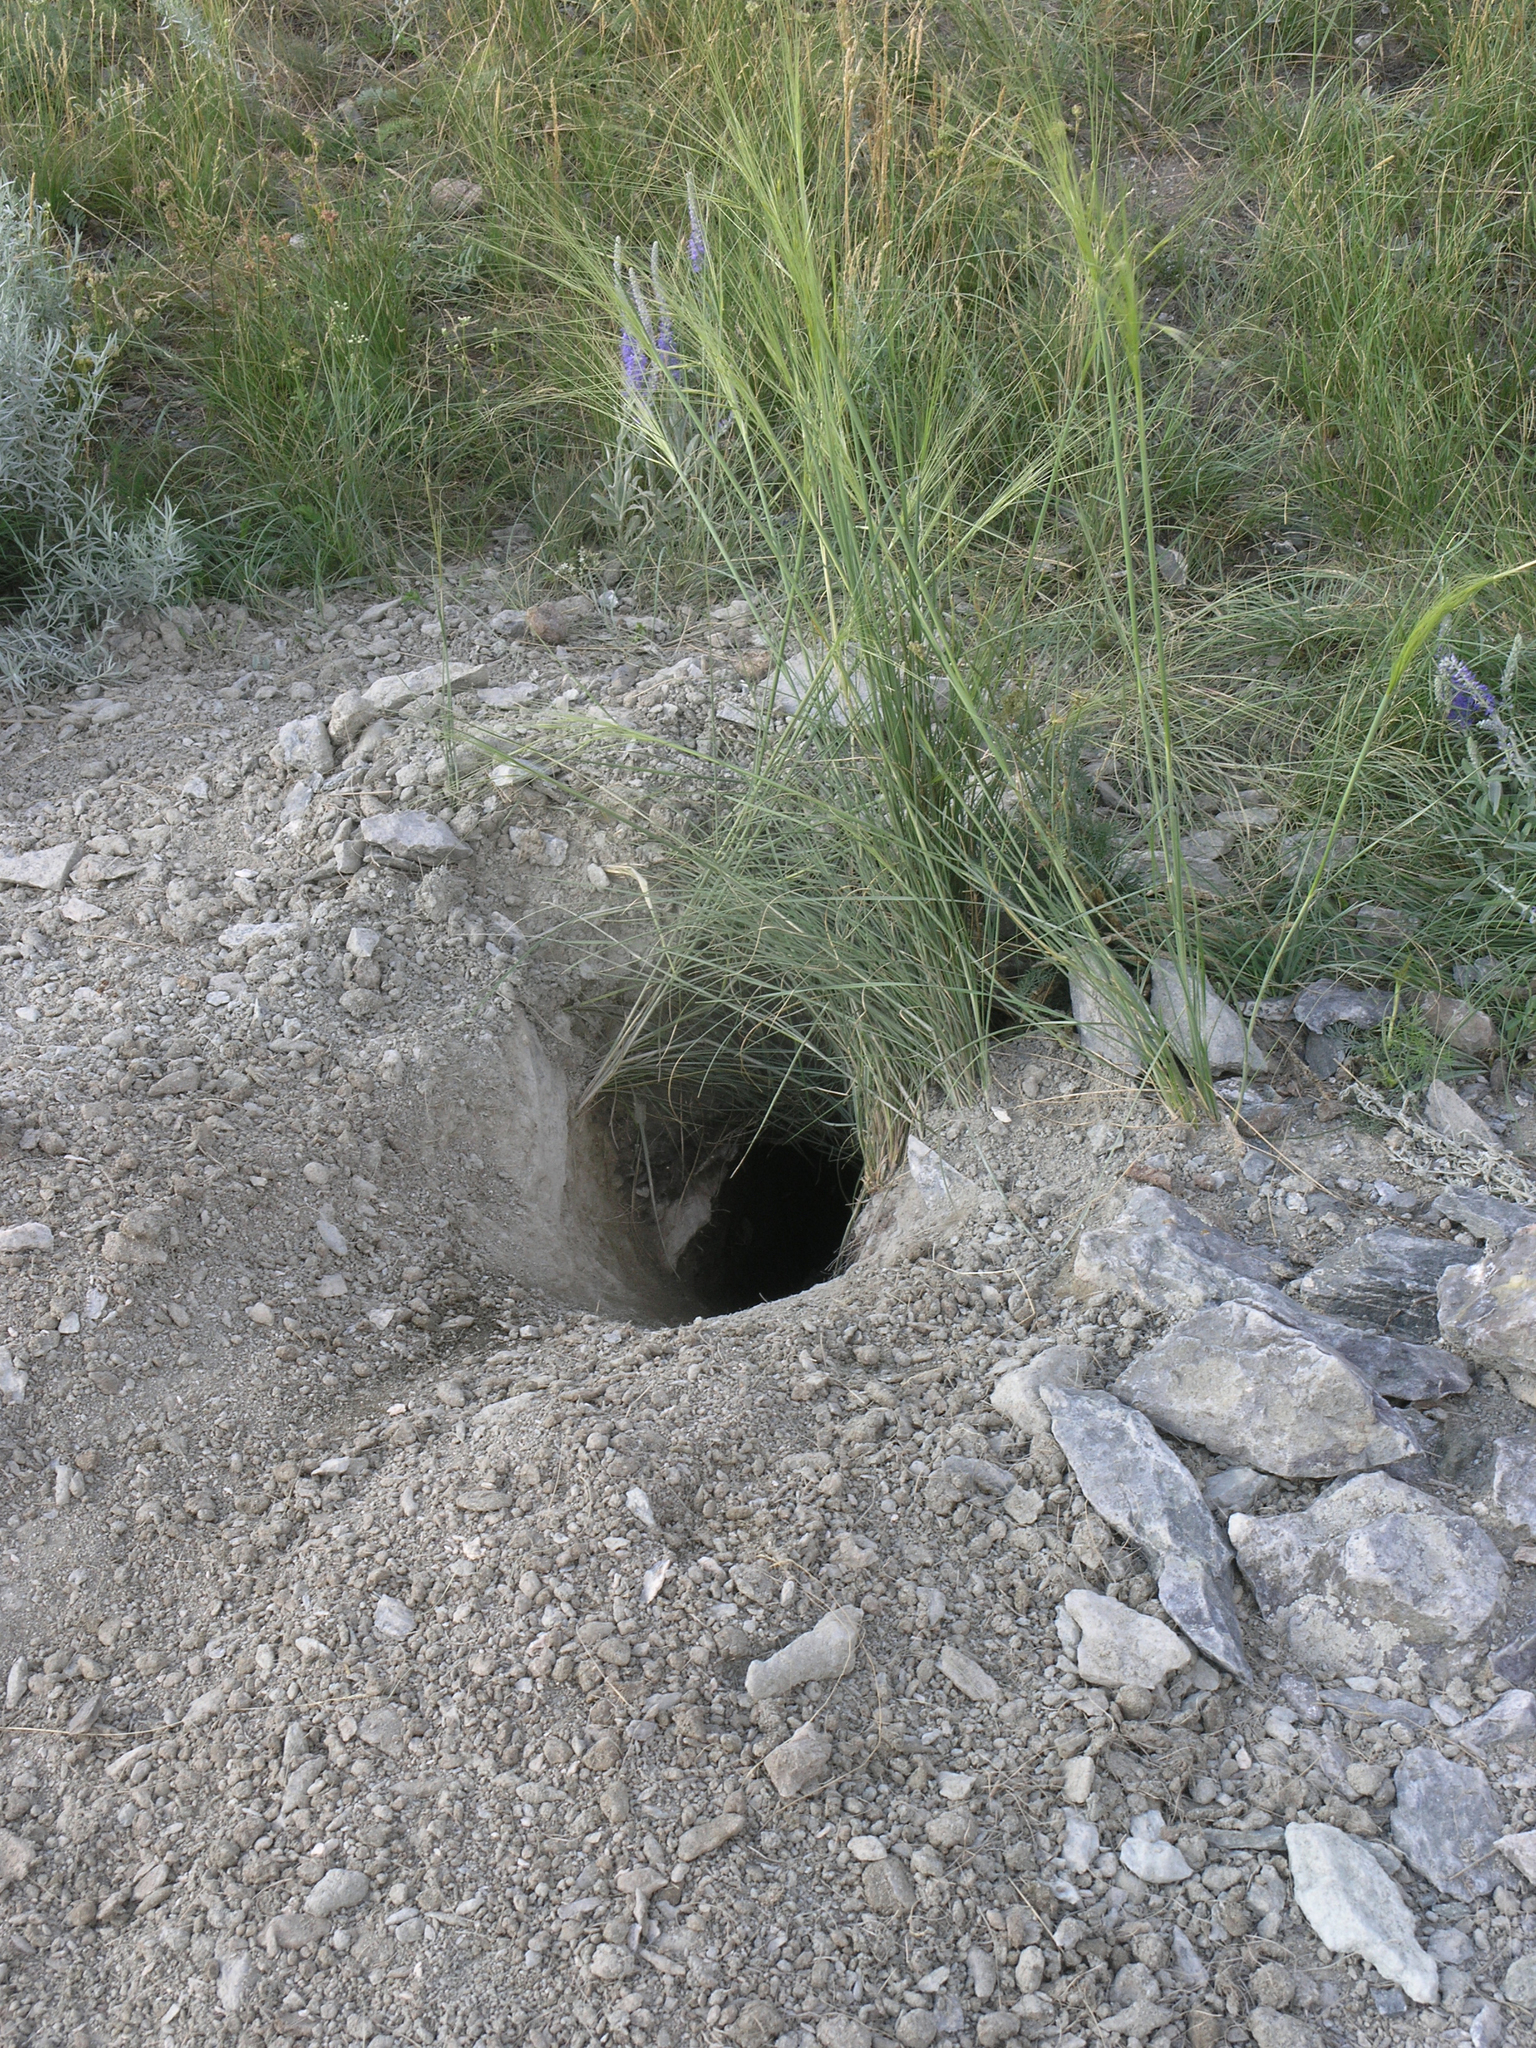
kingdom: Animalia
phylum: Chordata
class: Mammalia
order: Rodentia
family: Sciuridae
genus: Marmota
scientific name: Marmota bobak
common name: Bobak marmot
